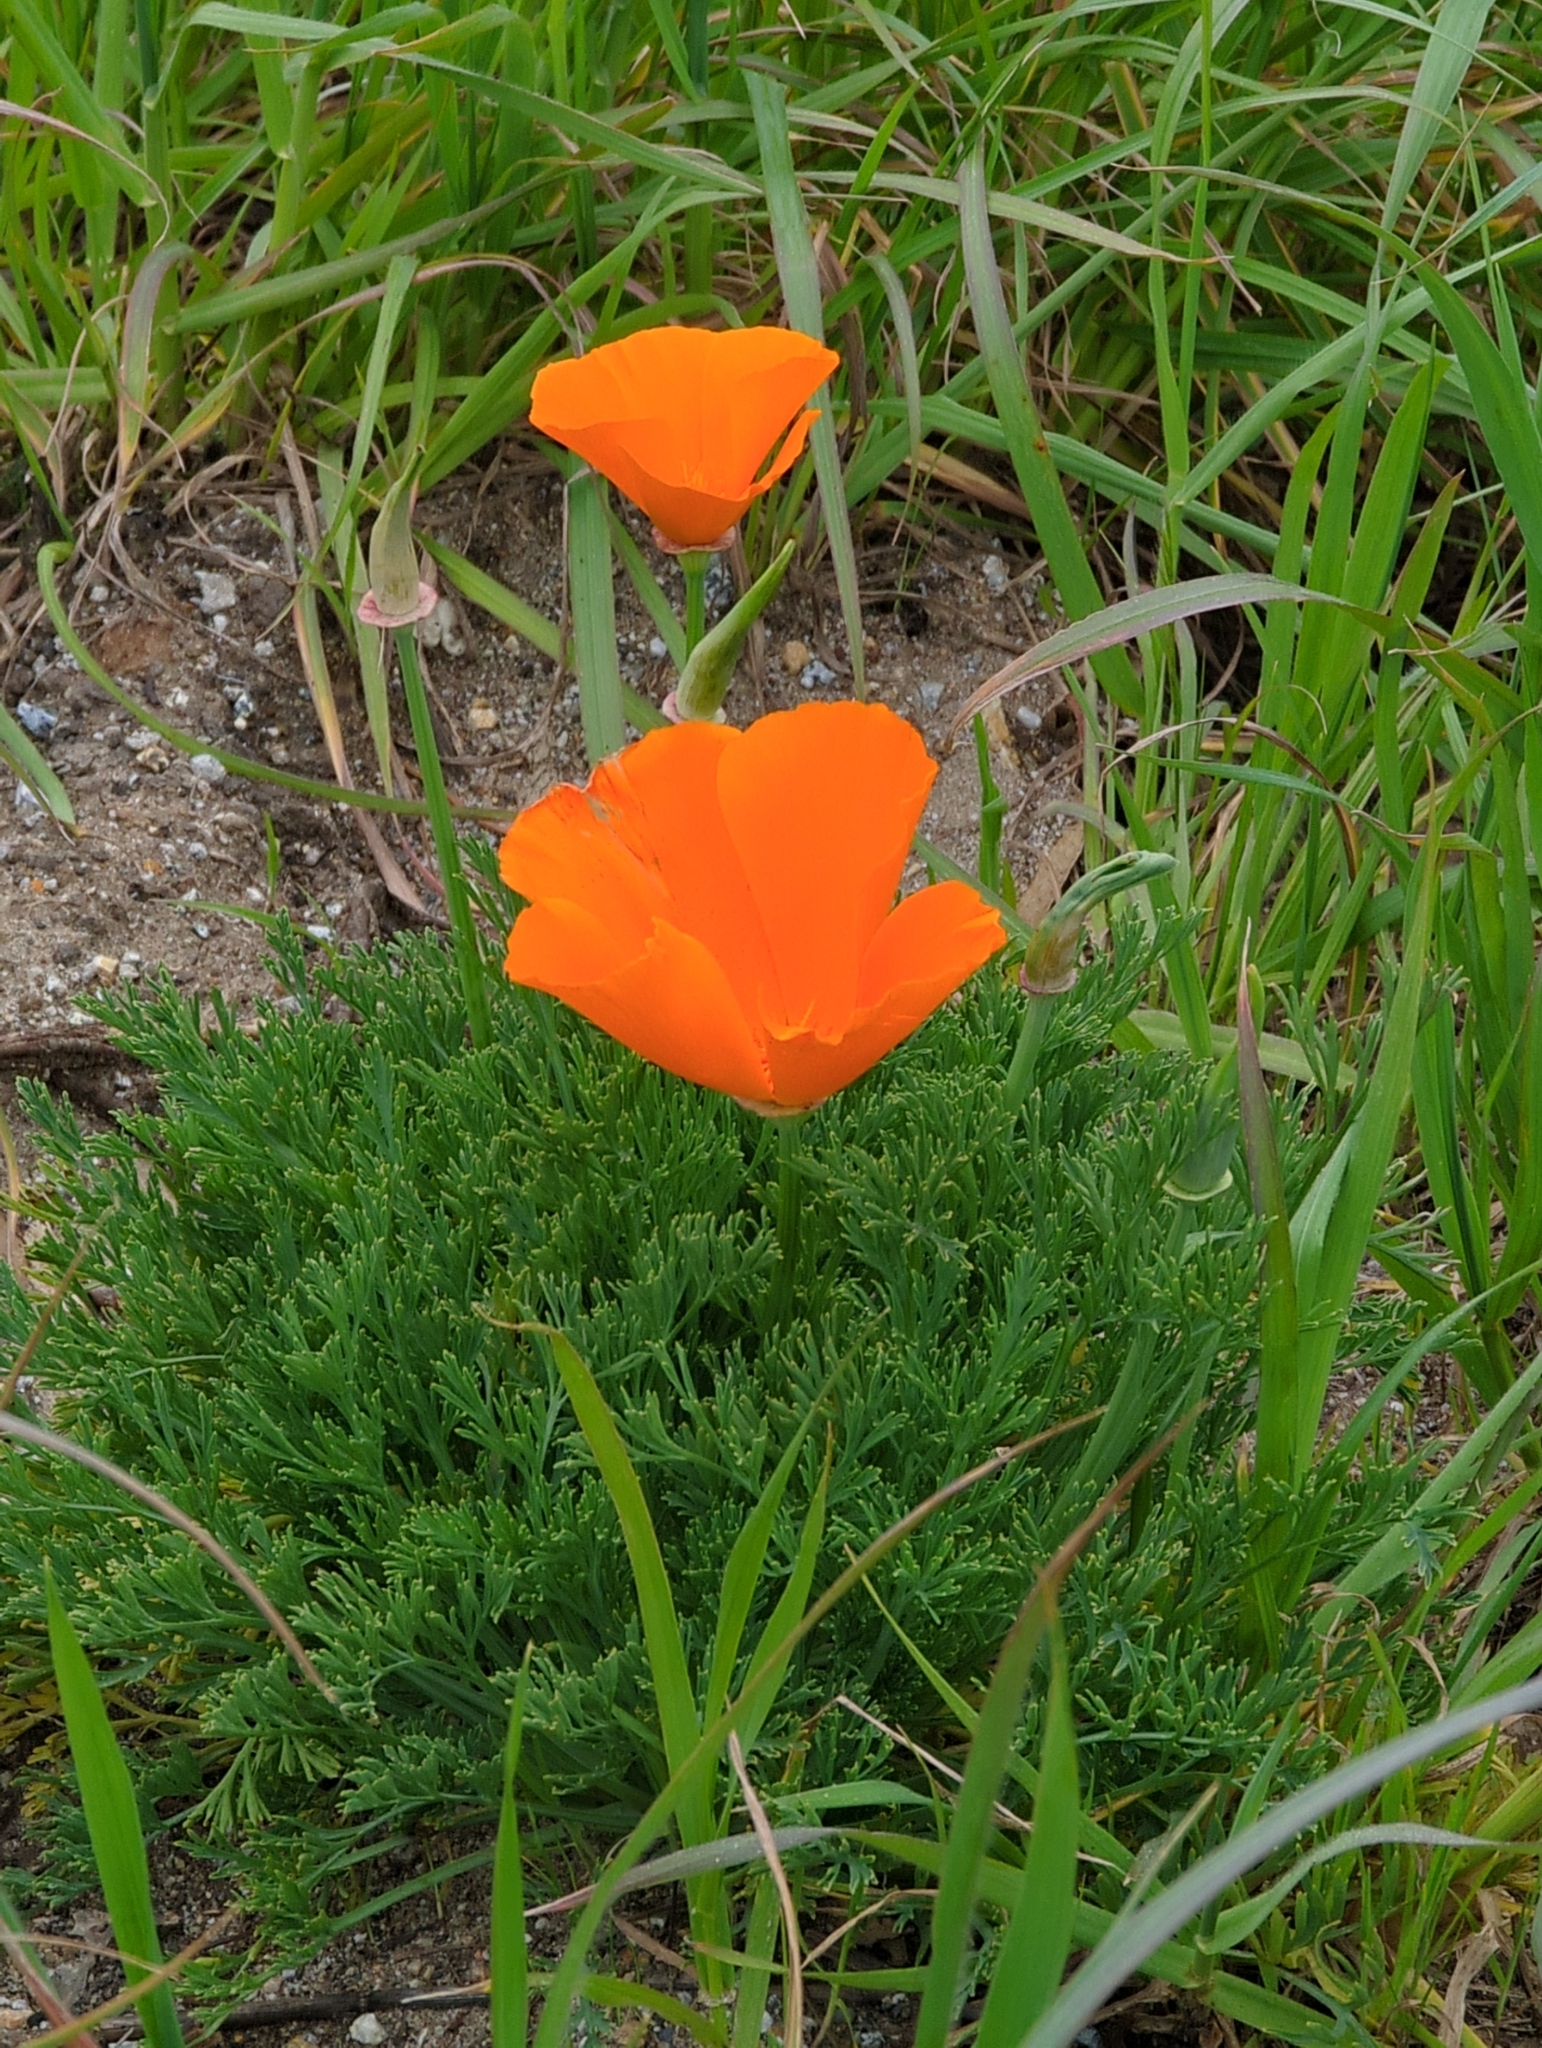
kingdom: Plantae
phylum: Tracheophyta
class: Magnoliopsida
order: Ranunculales
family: Papaveraceae
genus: Eschscholzia
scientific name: Eschscholzia californica
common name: California poppy
